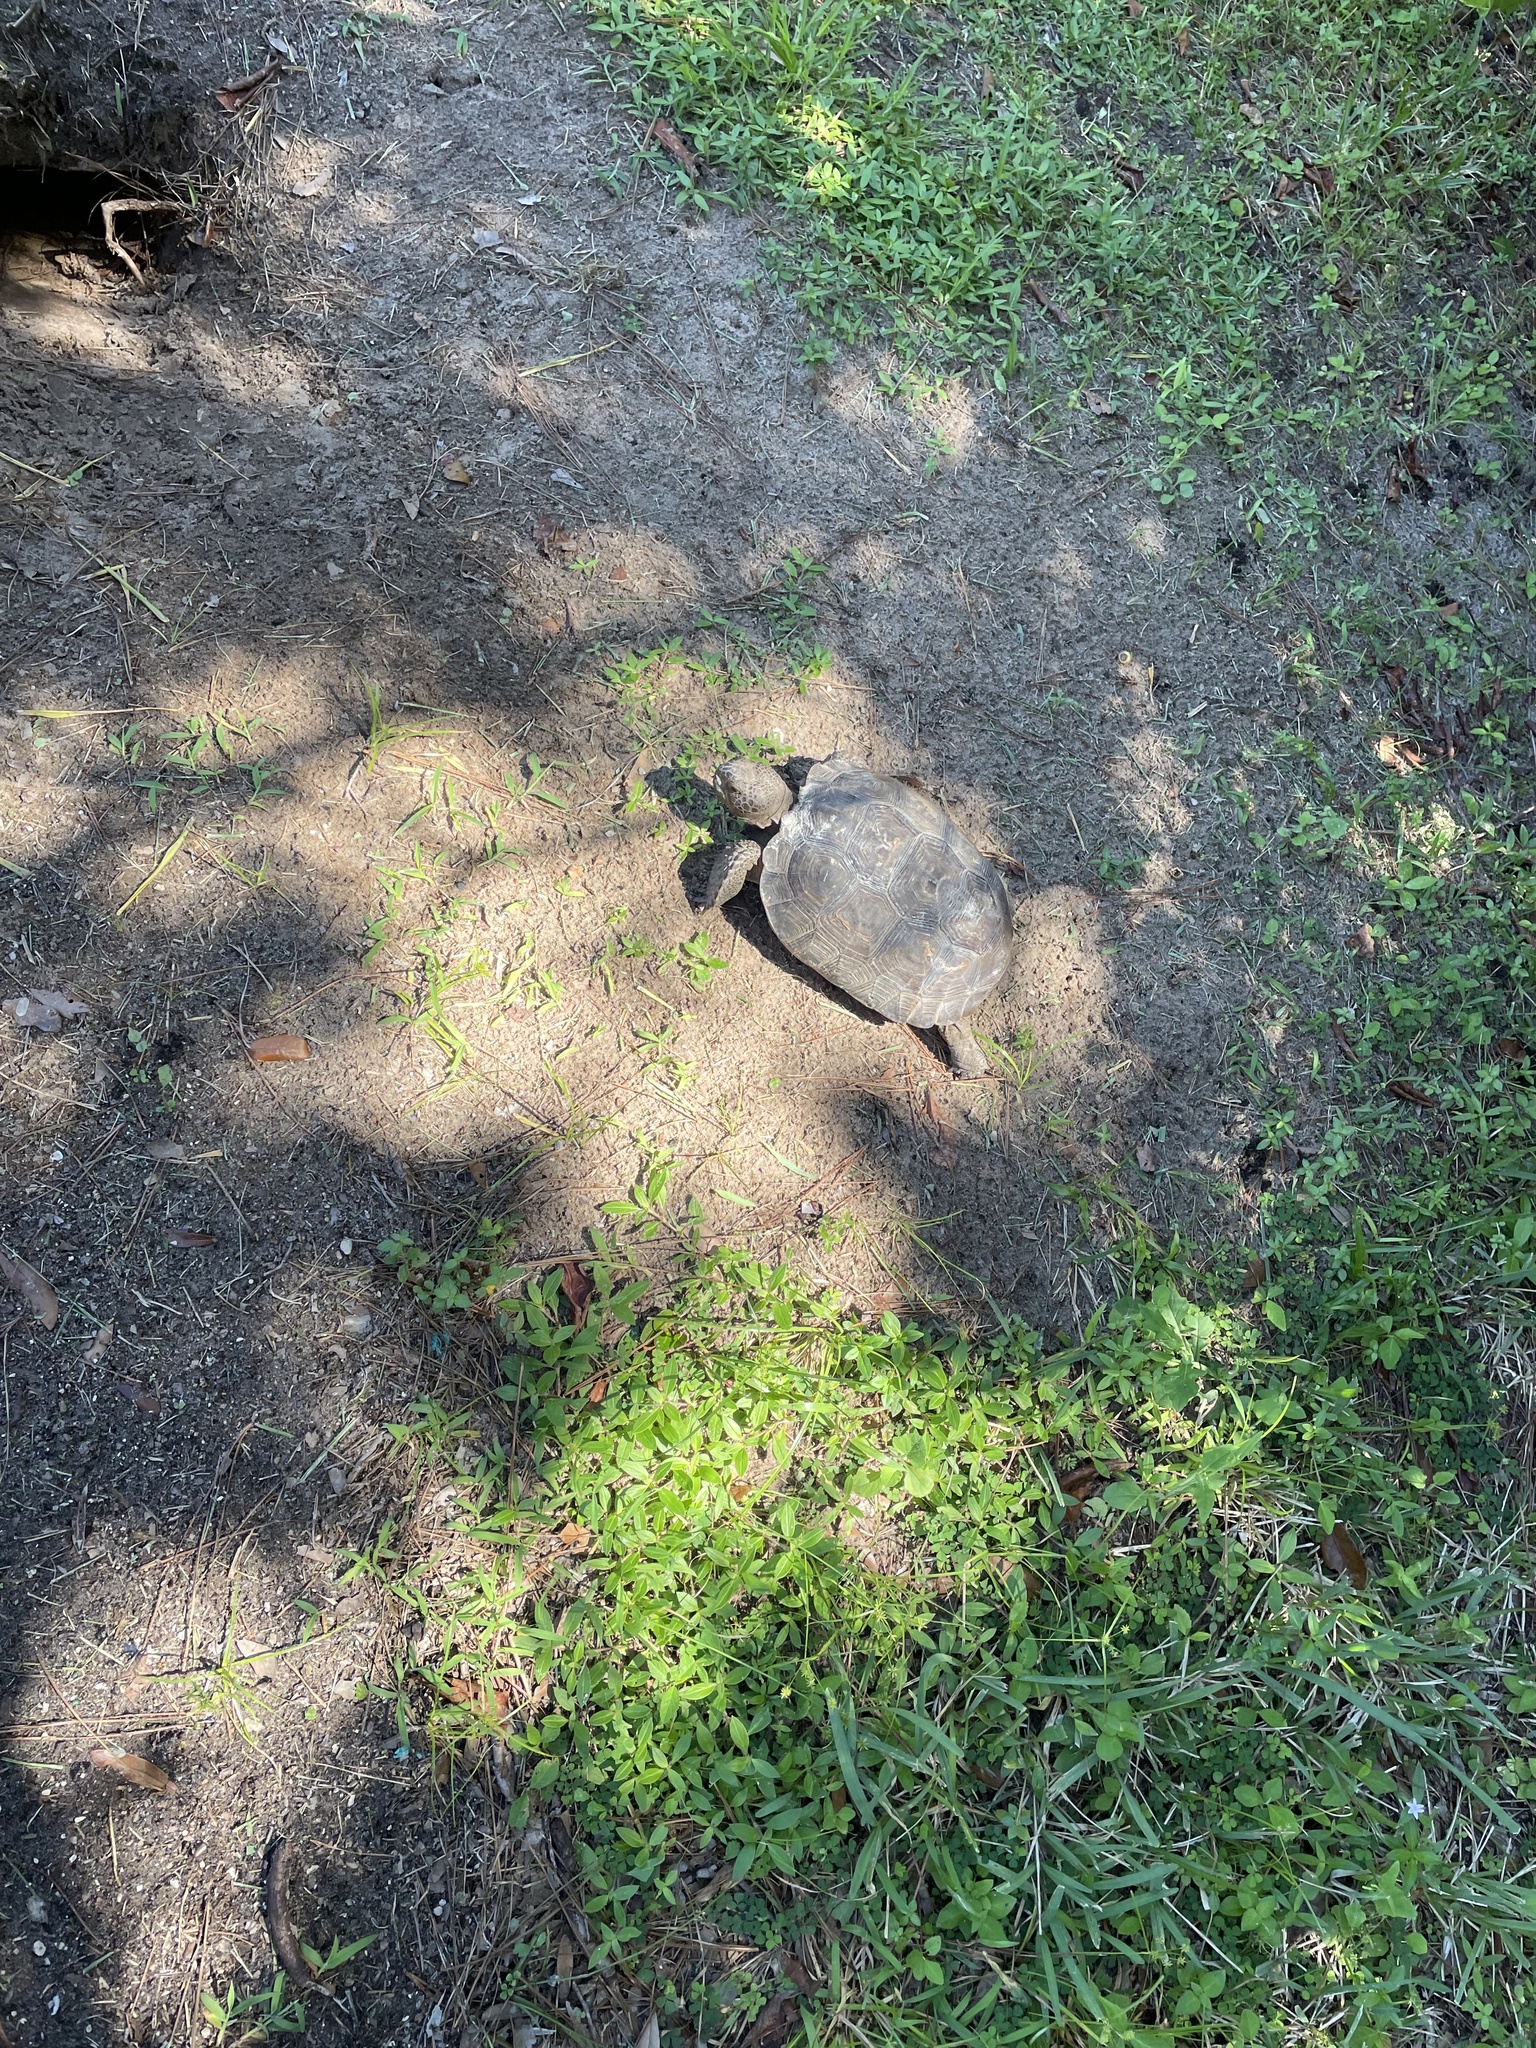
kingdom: Animalia
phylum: Chordata
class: Testudines
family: Testudinidae
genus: Gopherus
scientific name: Gopherus polyphemus
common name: Florida gopher tortoise
